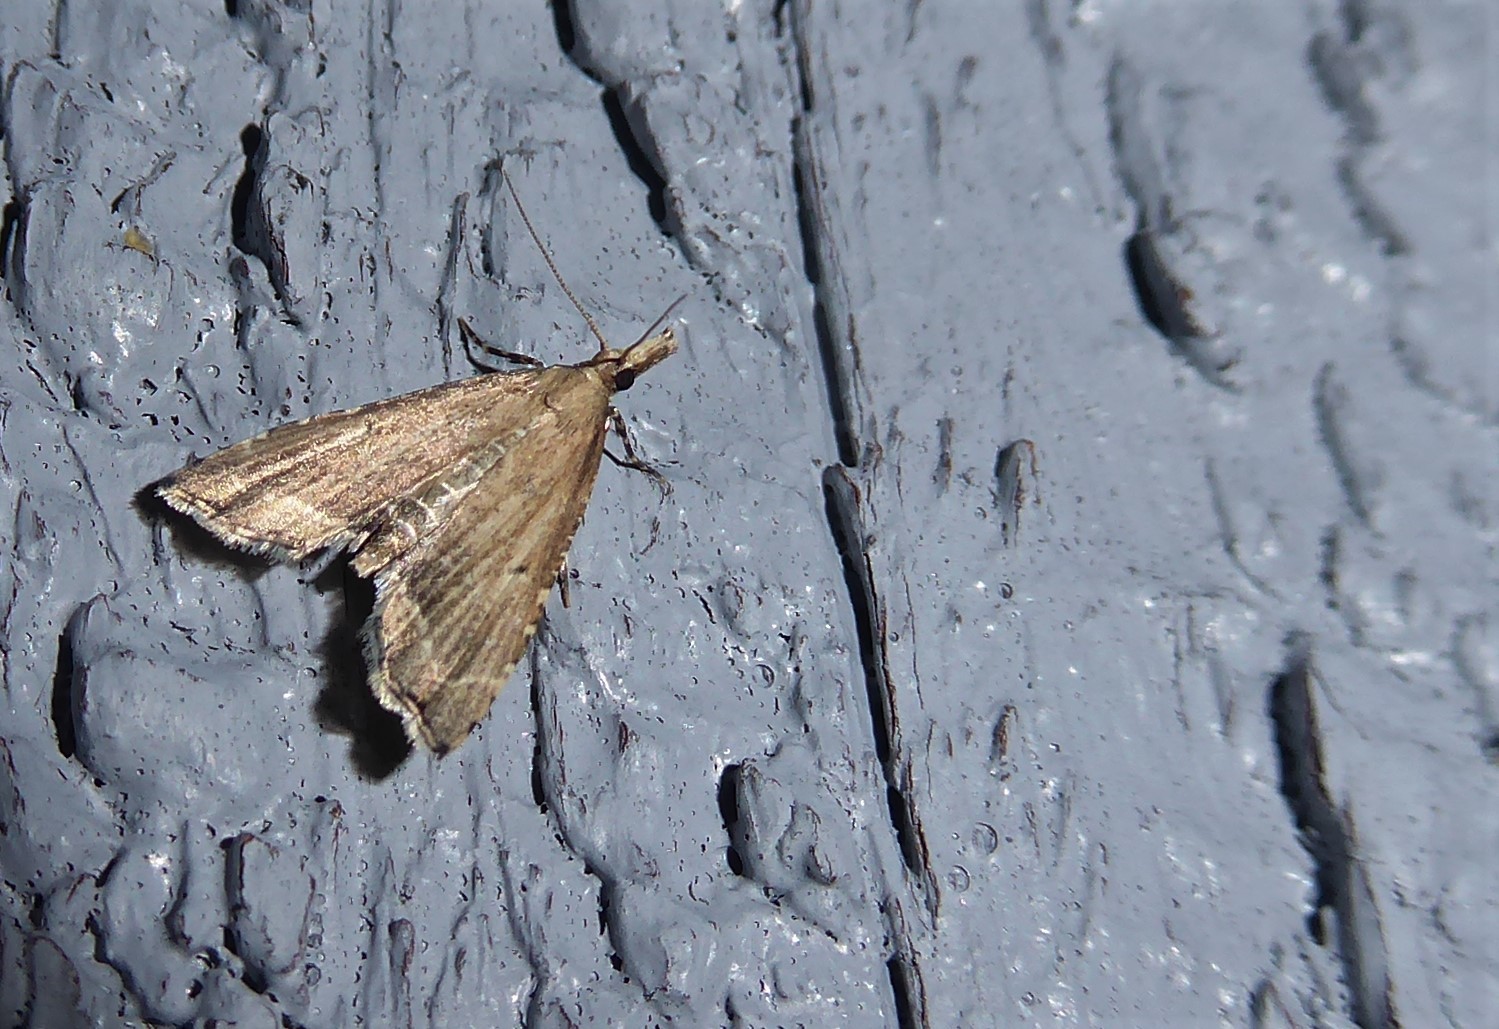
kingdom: Animalia
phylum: Arthropoda
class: Insecta
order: Lepidoptera
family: Crambidae
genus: Diplopseustis
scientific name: Diplopseustis perieresalis
